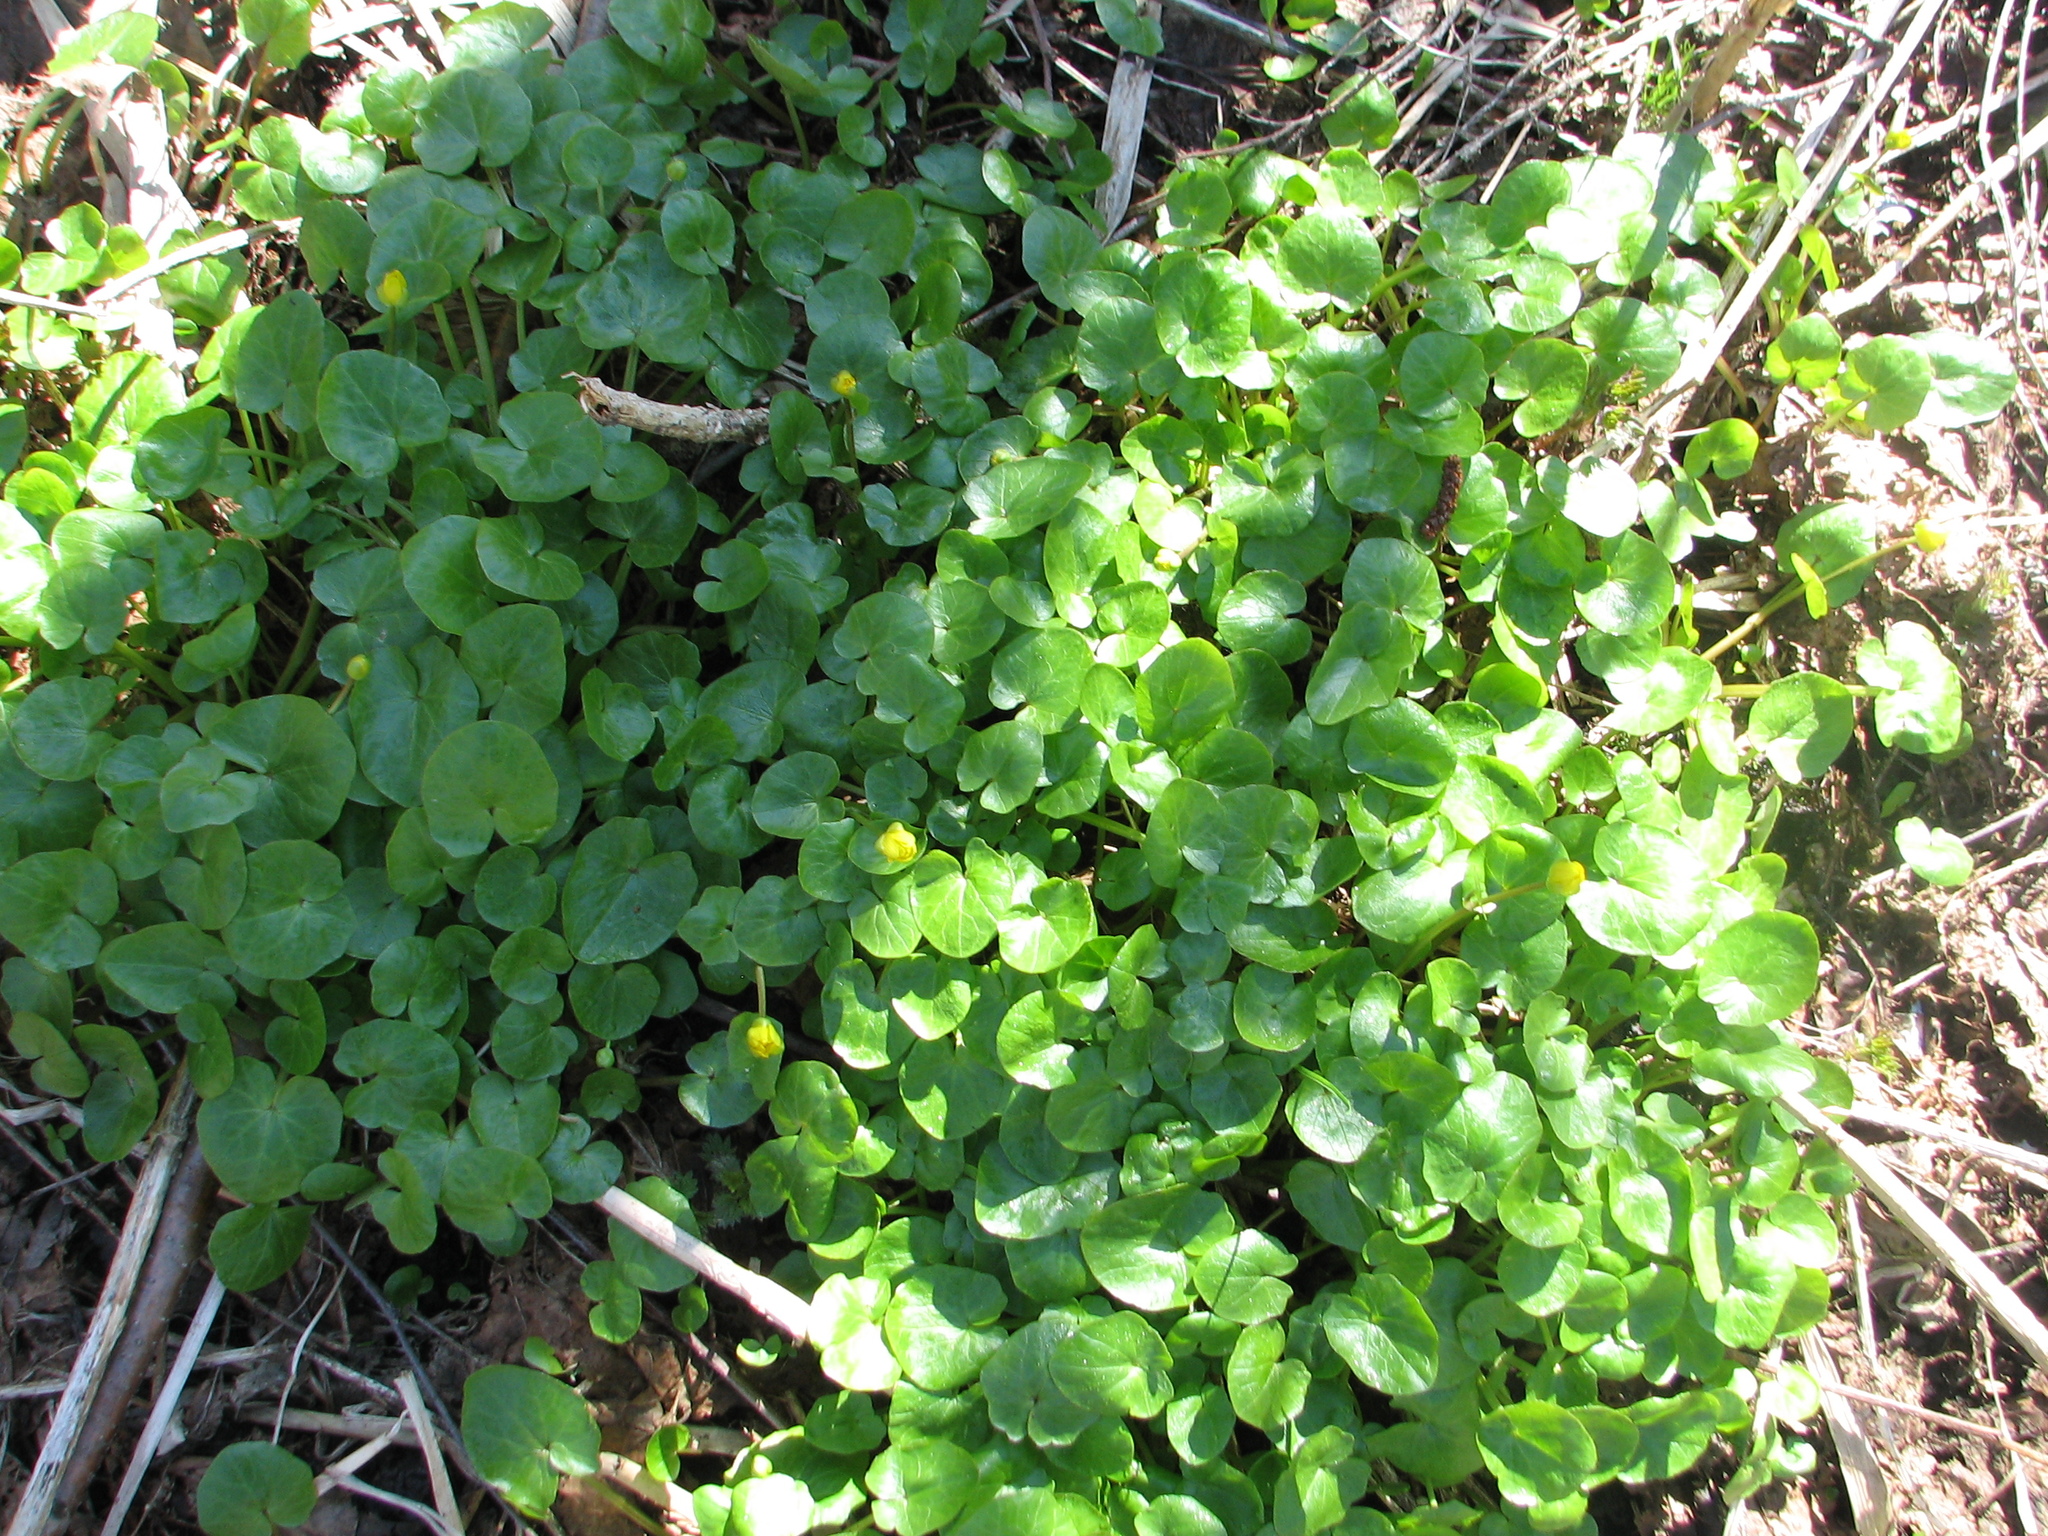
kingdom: Plantae
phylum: Tracheophyta
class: Magnoliopsida
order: Ranunculales
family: Ranunculaceae
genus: Ficaria
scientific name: Ficaria verna
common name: Lesser celandine
